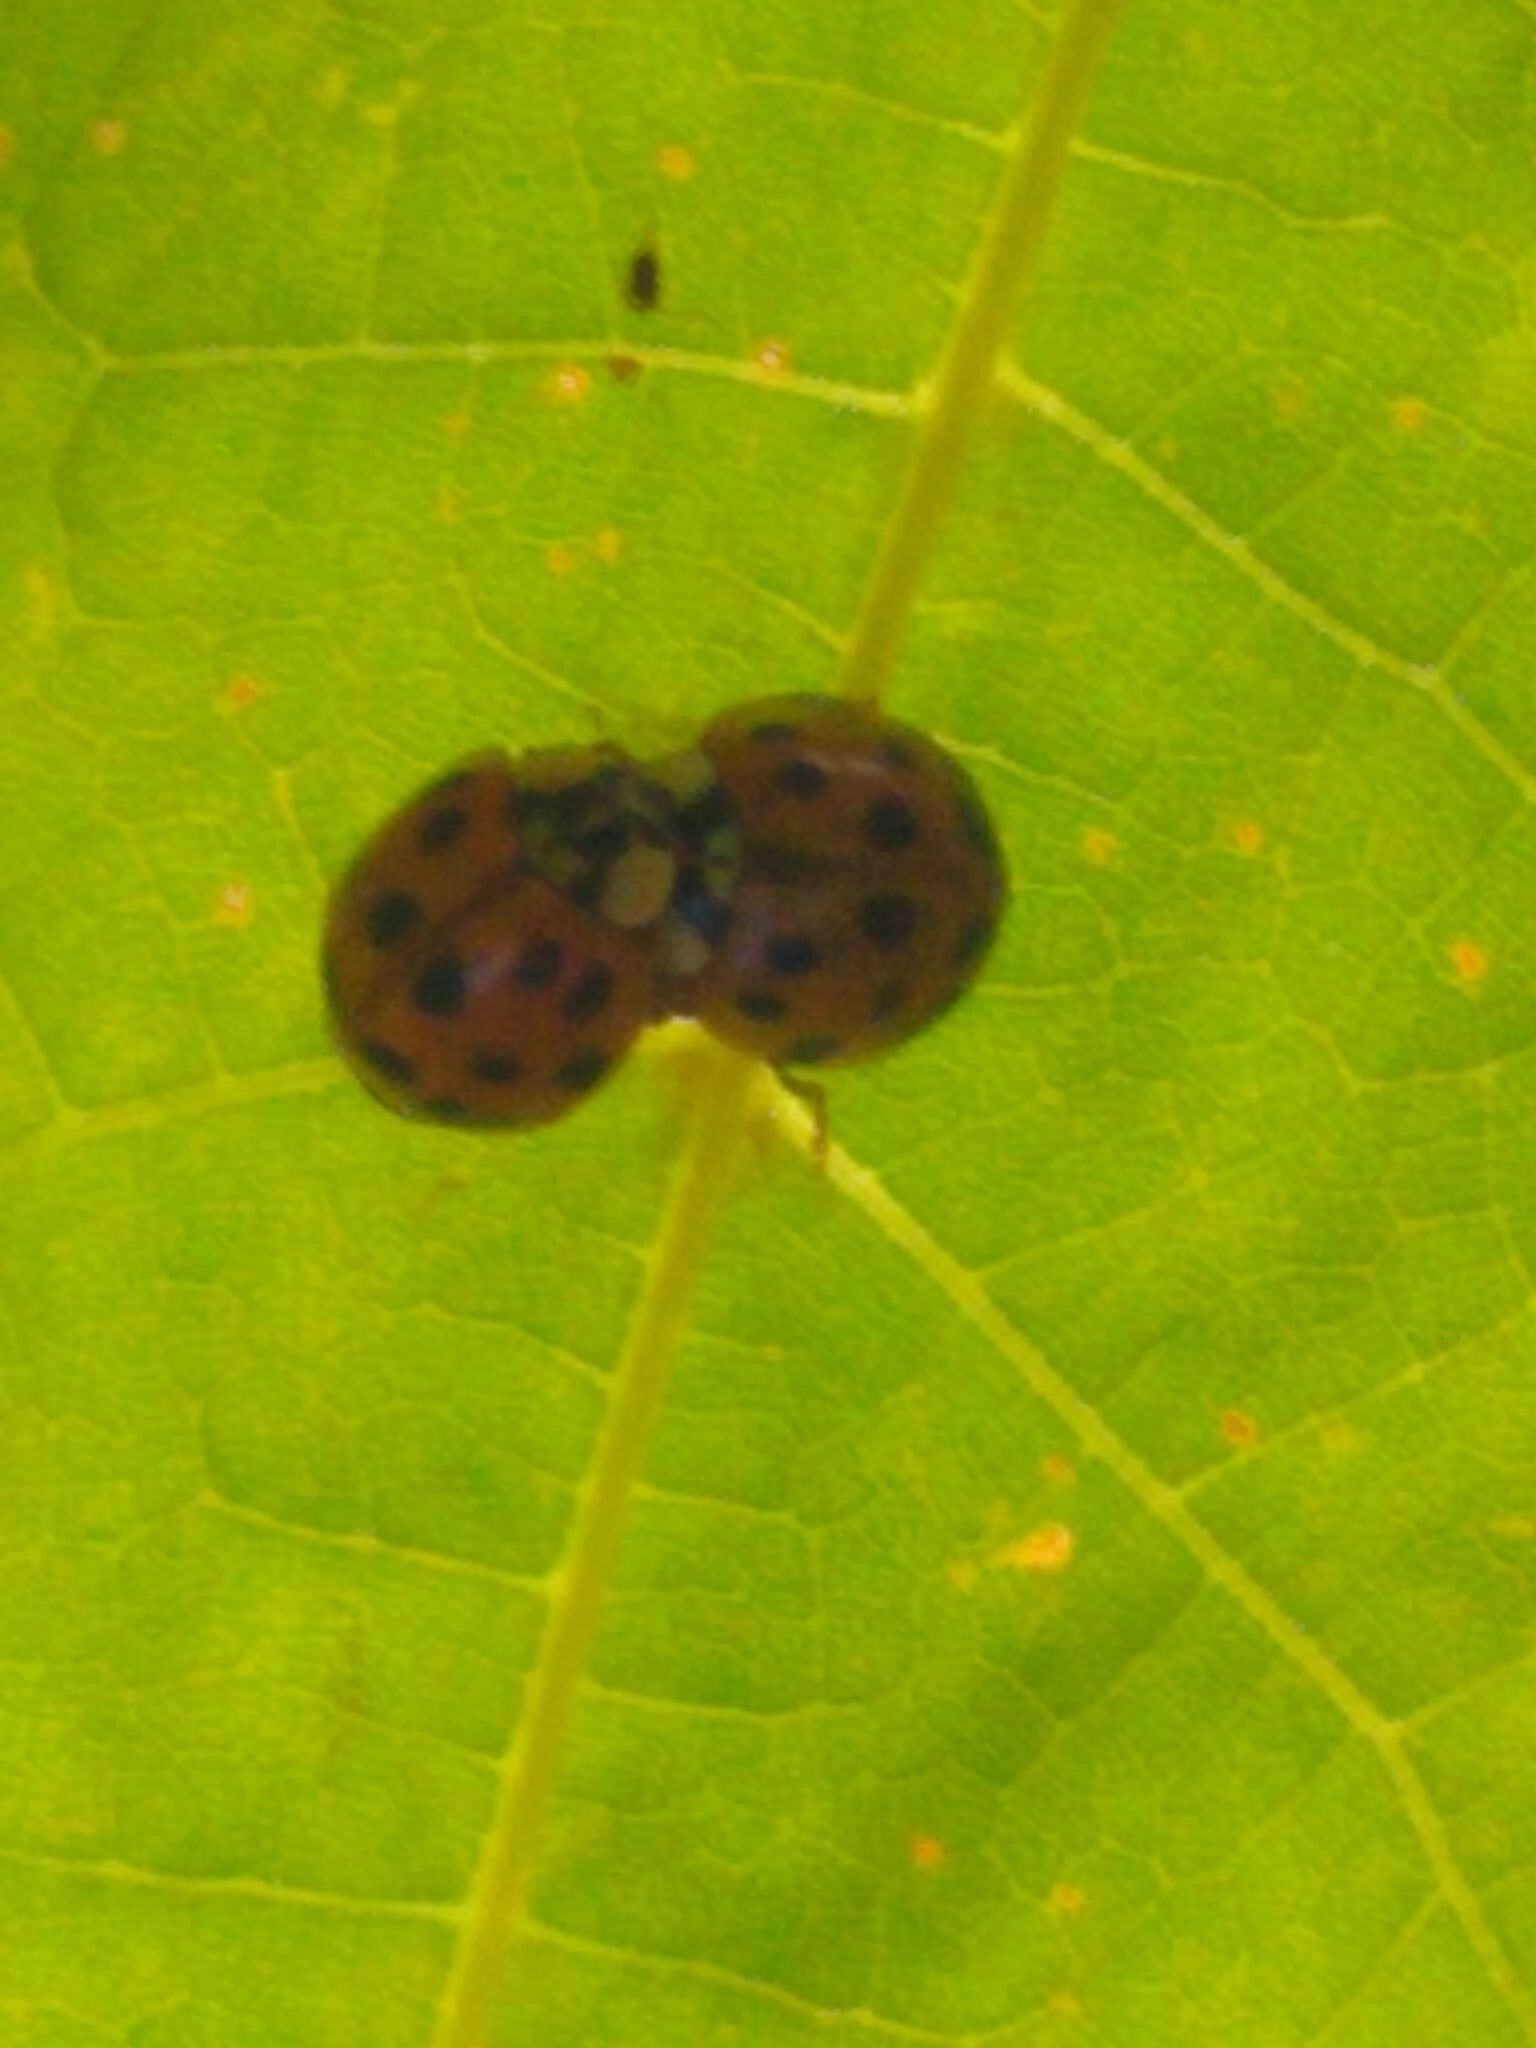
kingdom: Animalia
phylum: Arthropoda
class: Insecta
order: Coleoptera
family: Coccinellidae
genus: Harmonia
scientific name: Harmonia axyridis
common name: Harlequin ladybird
